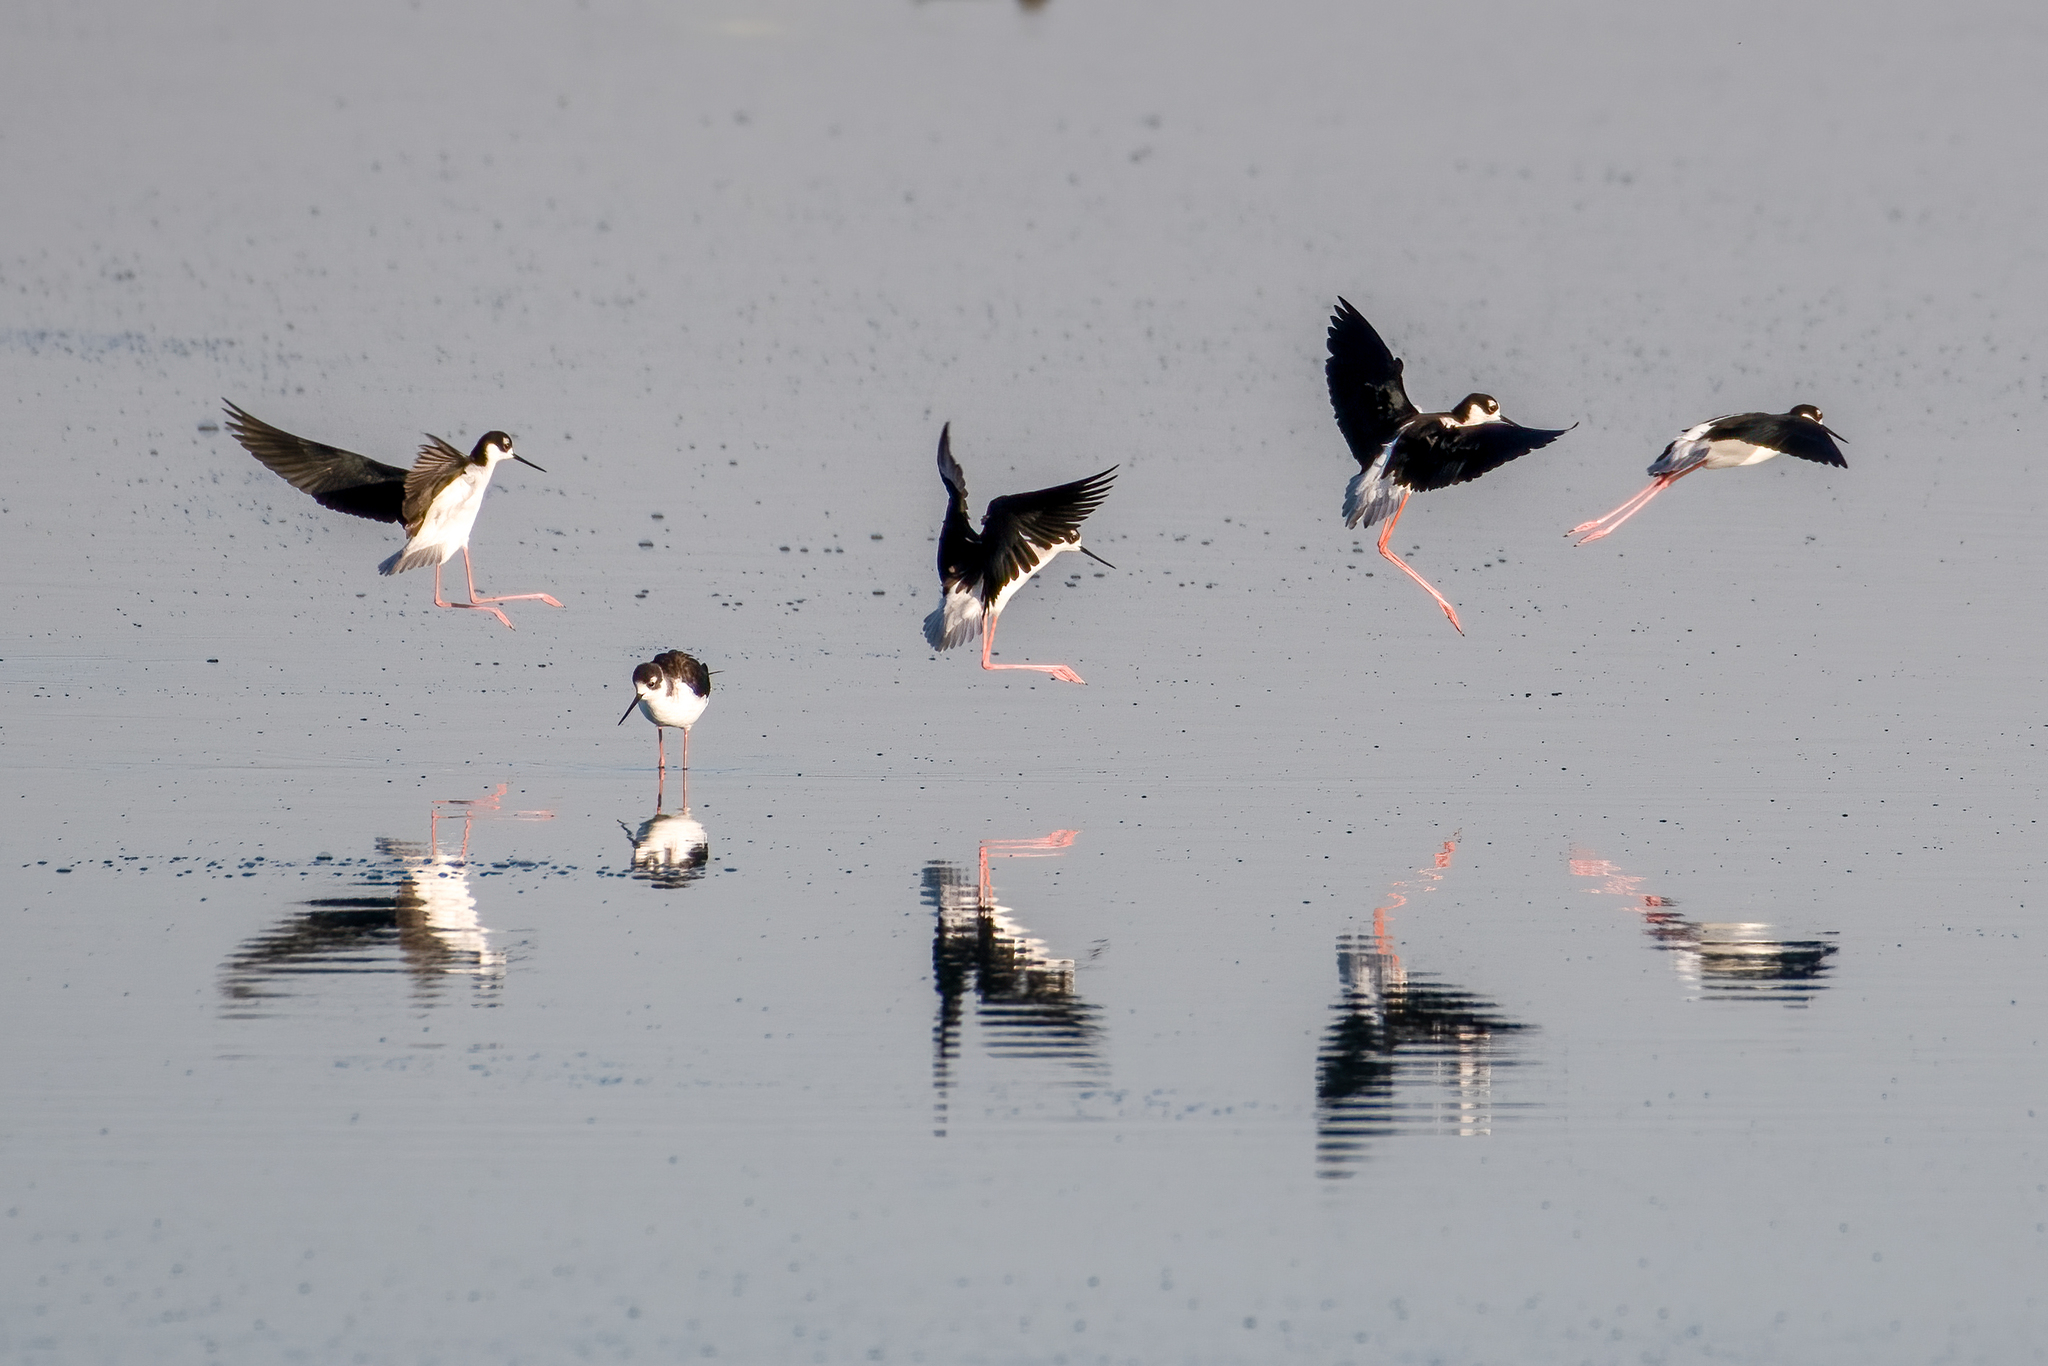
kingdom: Animalia
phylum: Chordata
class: Aves
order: Charadriiformes
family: Recurvirostridae
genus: Himantopus
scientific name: Himantopus mexicanus
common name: Black-necked stilt
